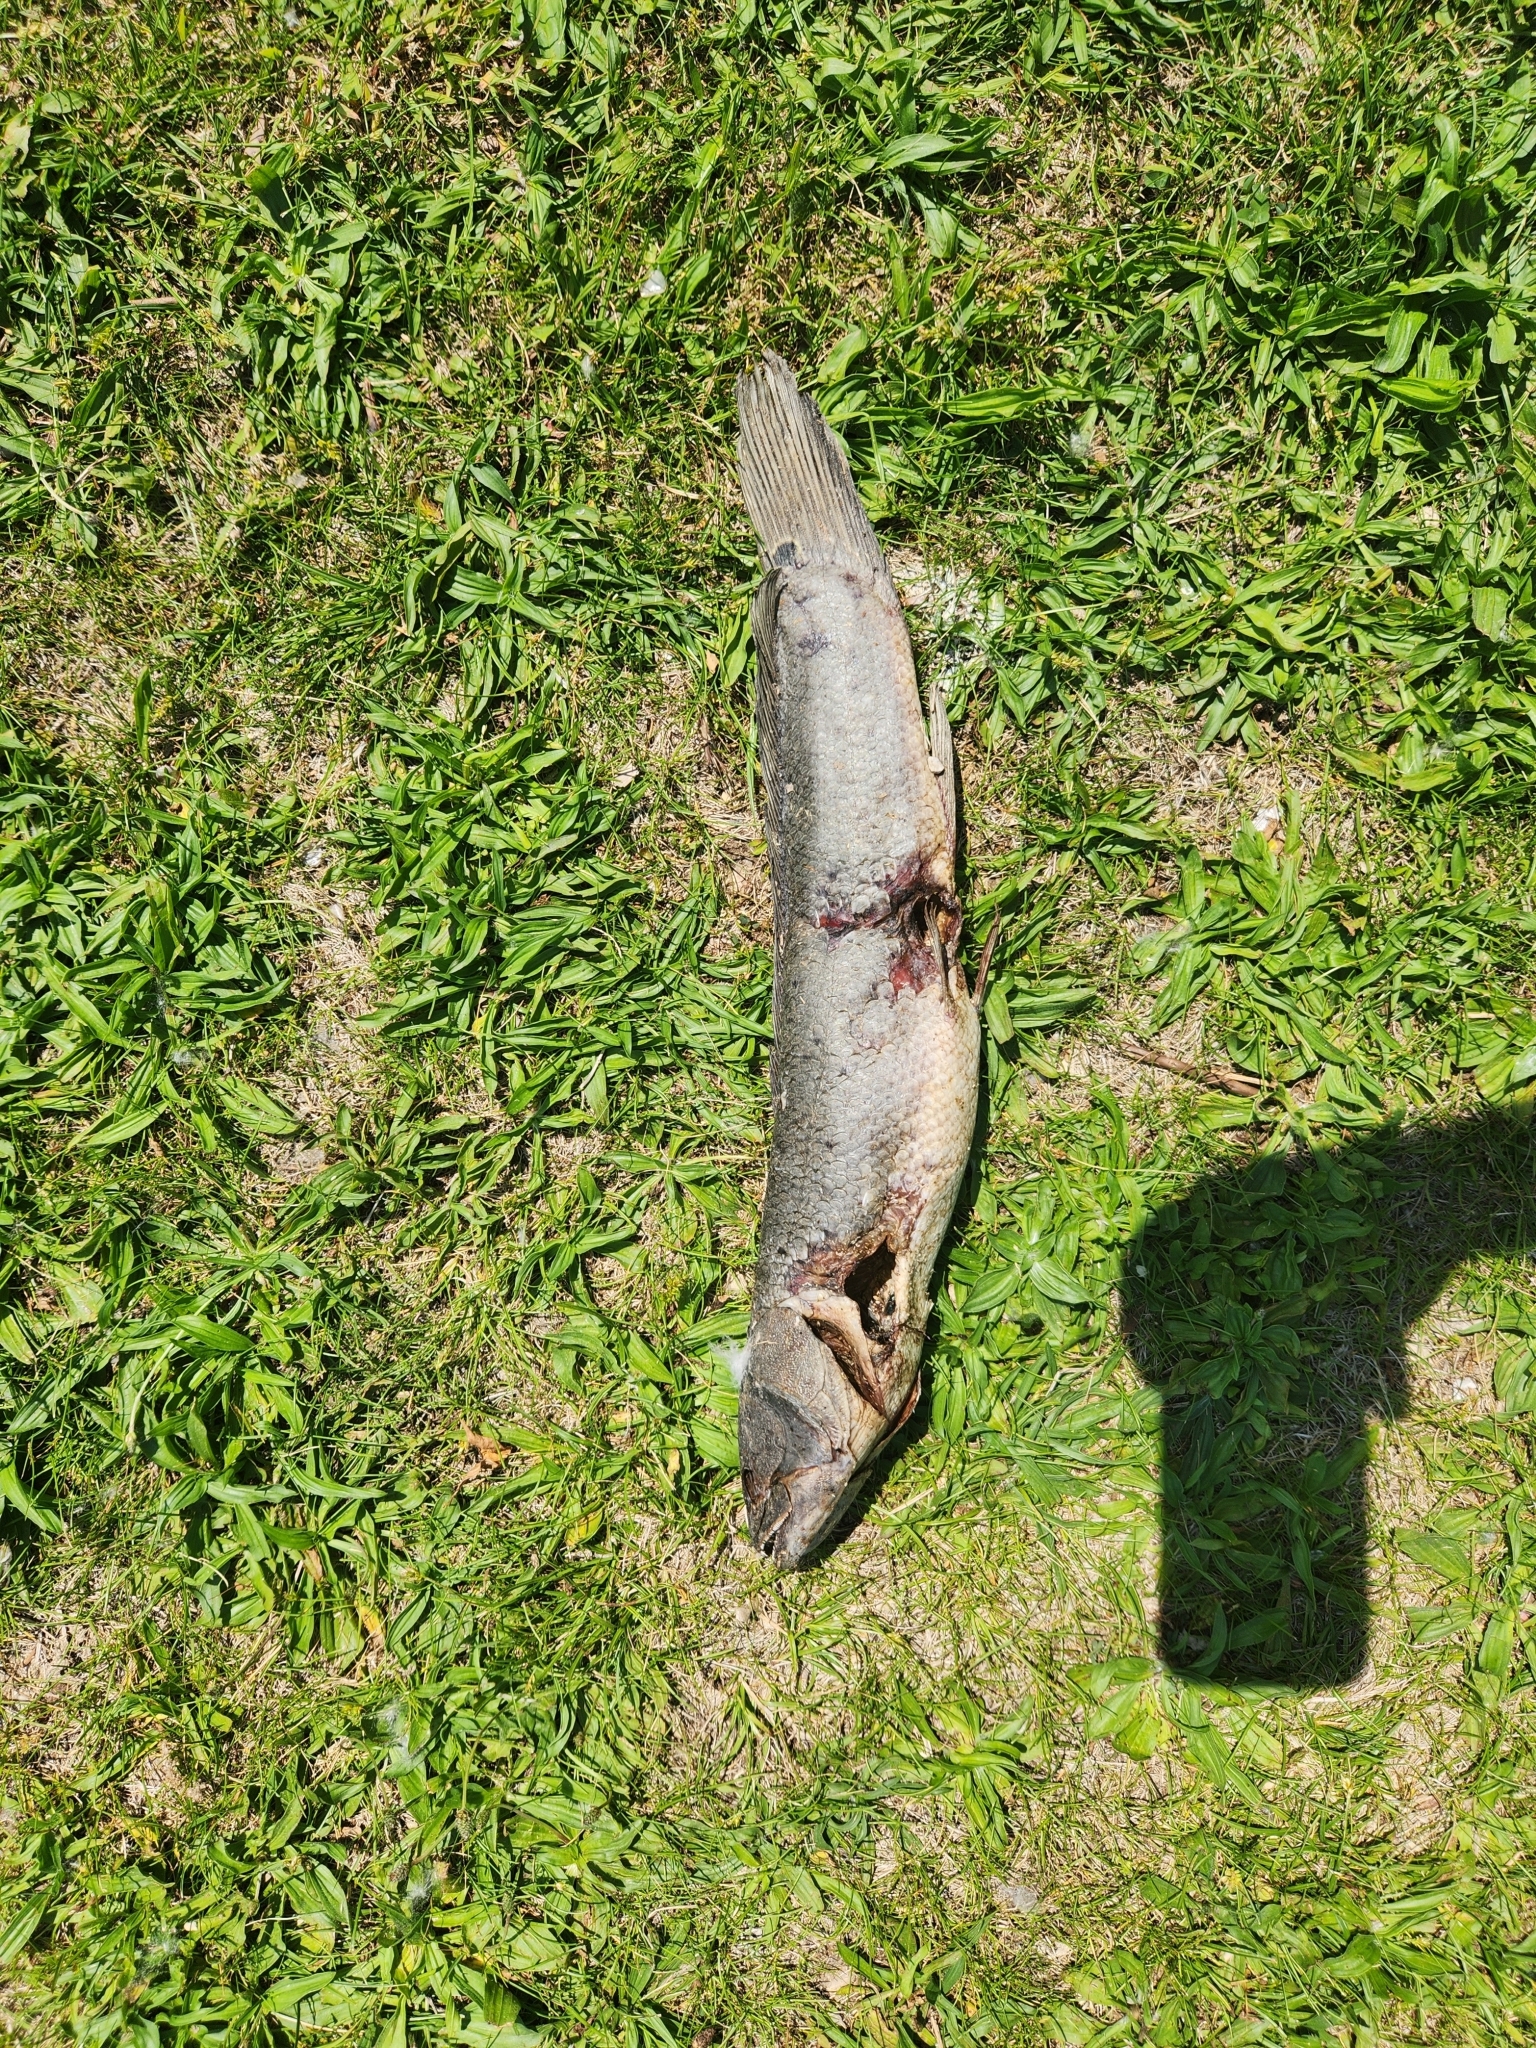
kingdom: Animalia
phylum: Chordata
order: Amiiformes
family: Amiidae
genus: Amia
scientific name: Amia calva
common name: Bowfin
